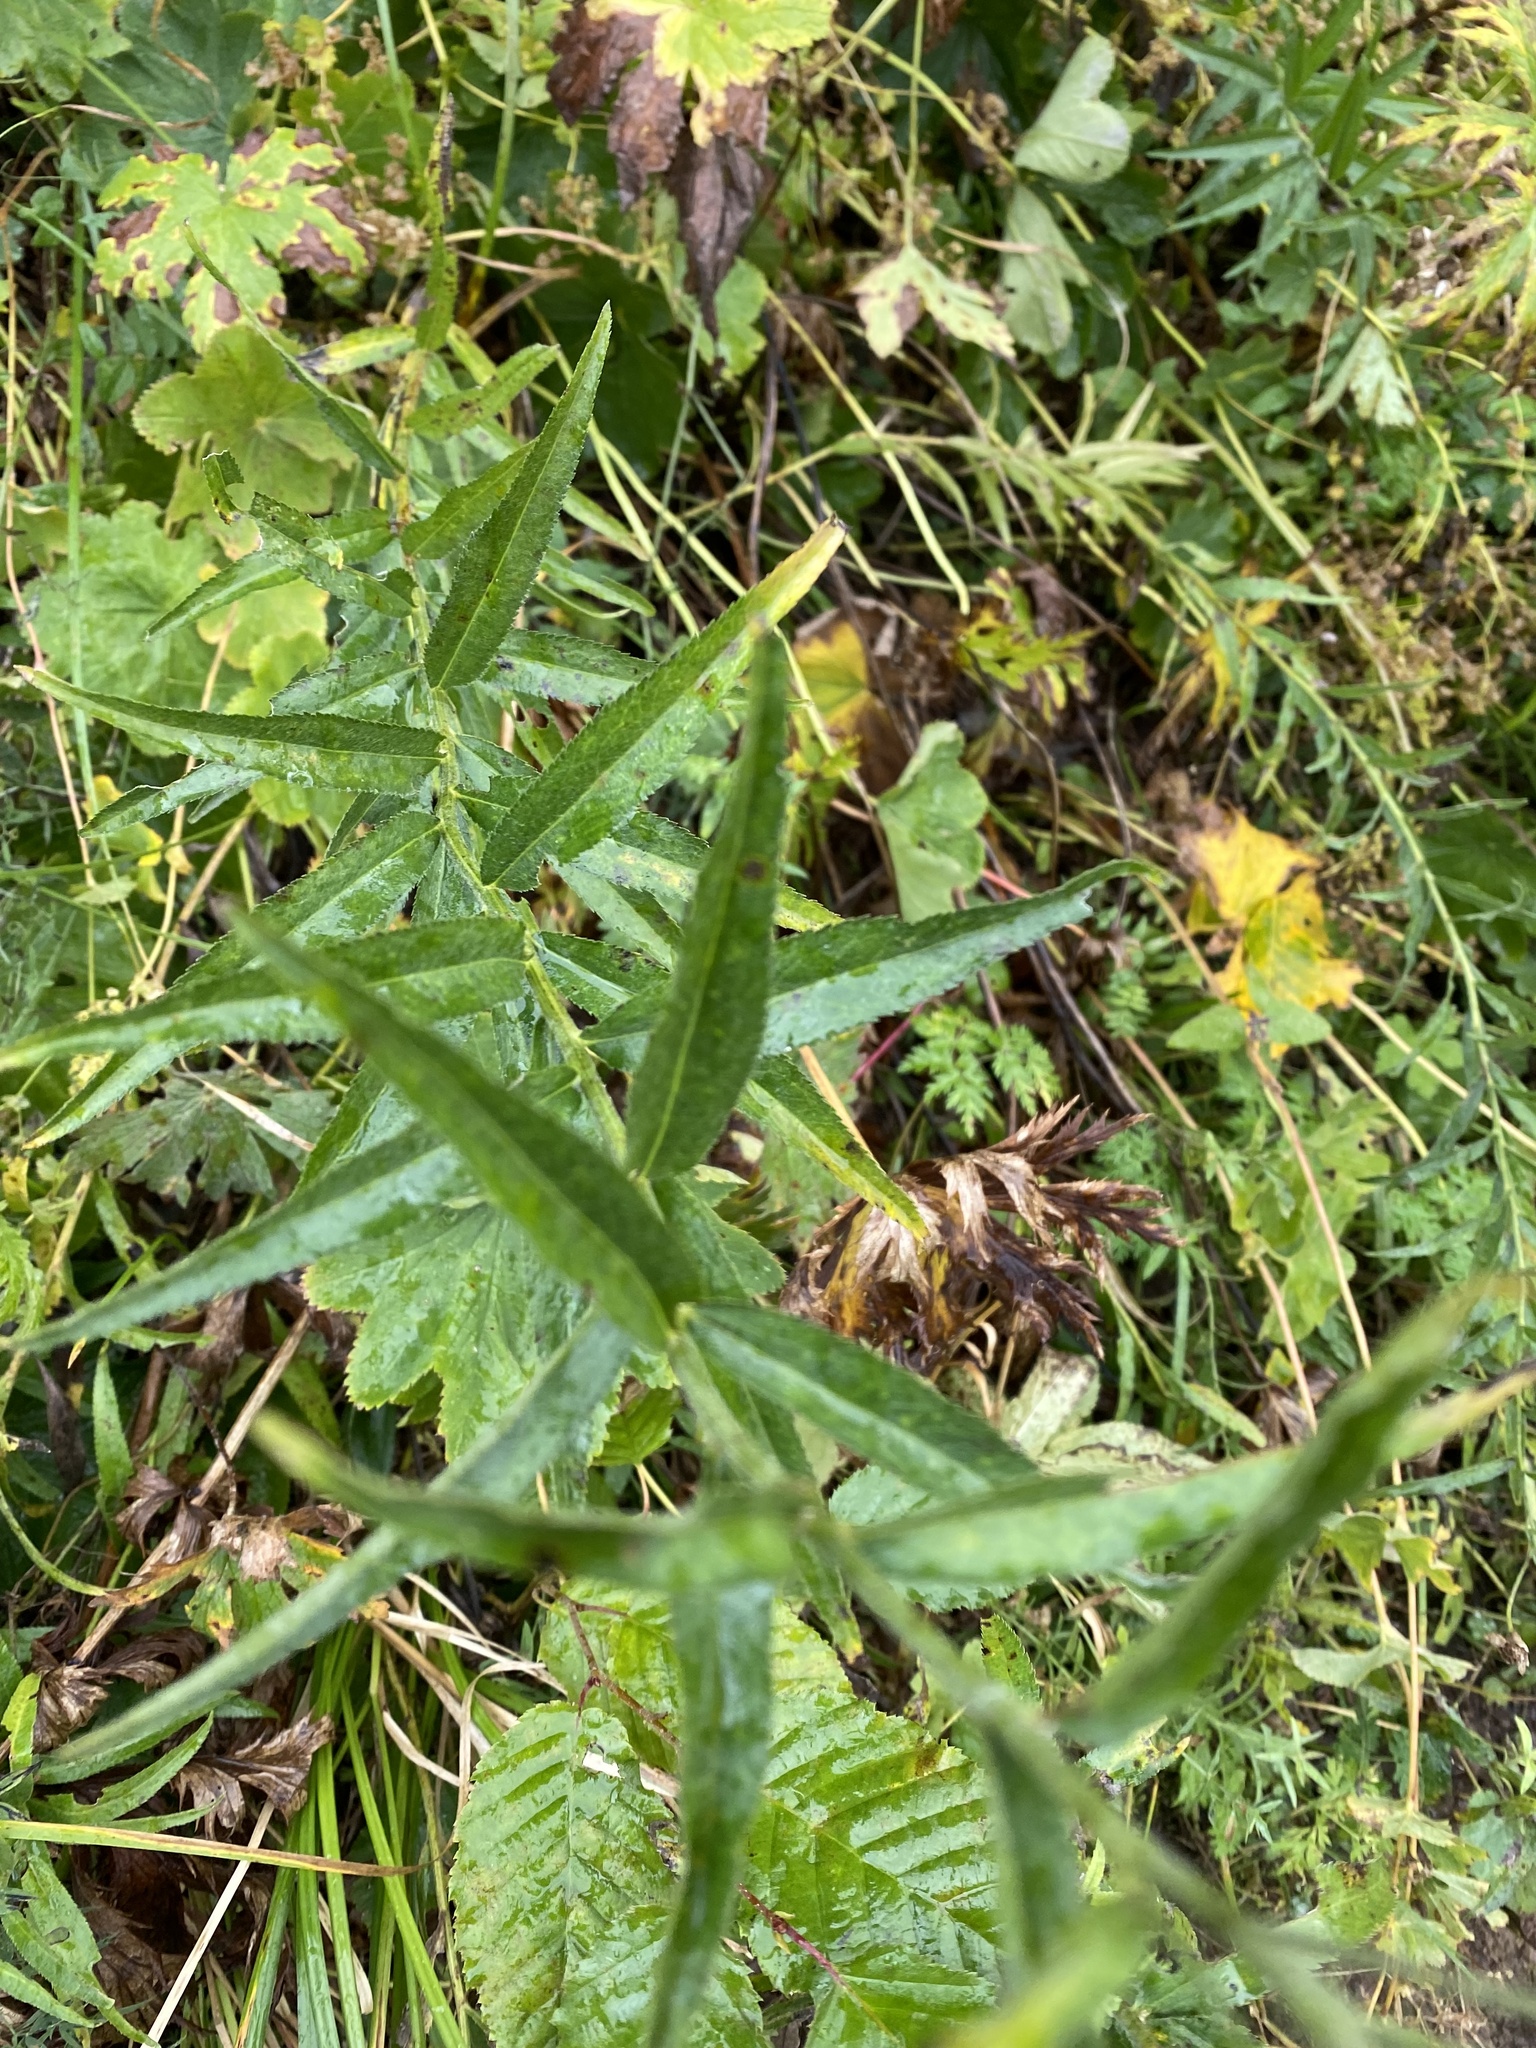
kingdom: Plantae
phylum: Tracheophyta
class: Magnoliopsida
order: Asterales
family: Asteraceae
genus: Achillea
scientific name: Achillea biserrata
